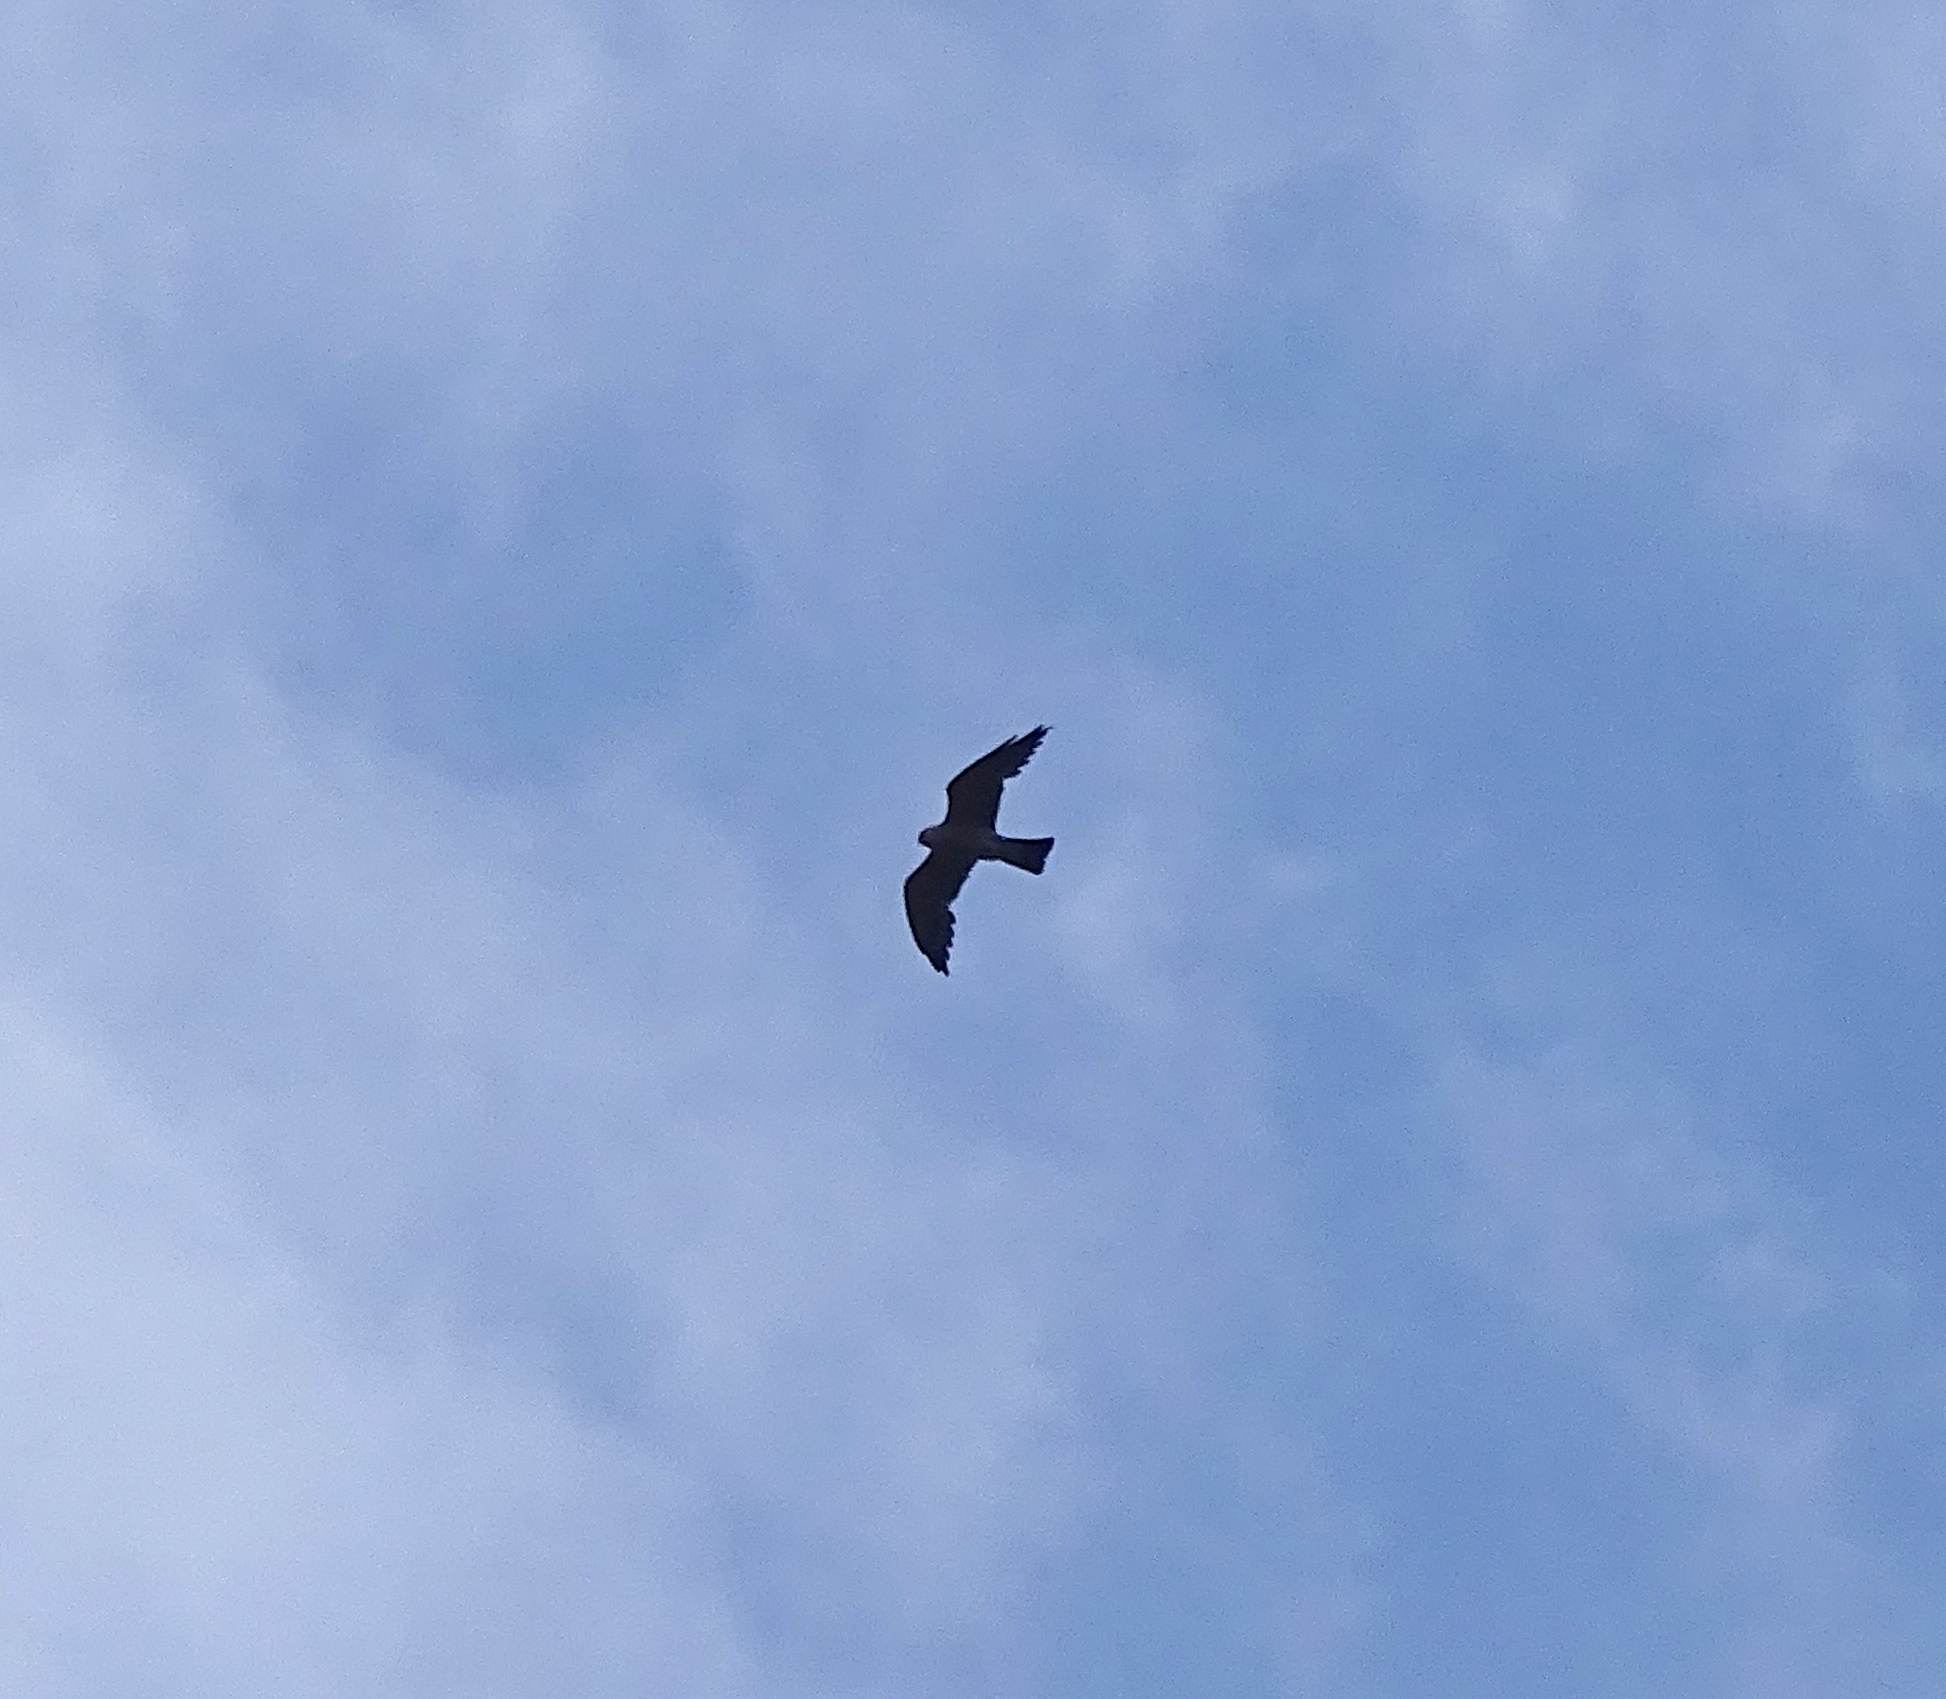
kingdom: Animalia
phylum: Chordata
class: Aves
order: Accipitriformes
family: Accipitridae
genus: Ictinia
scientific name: Ictinia mississippiensis
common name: Mississippi kite
